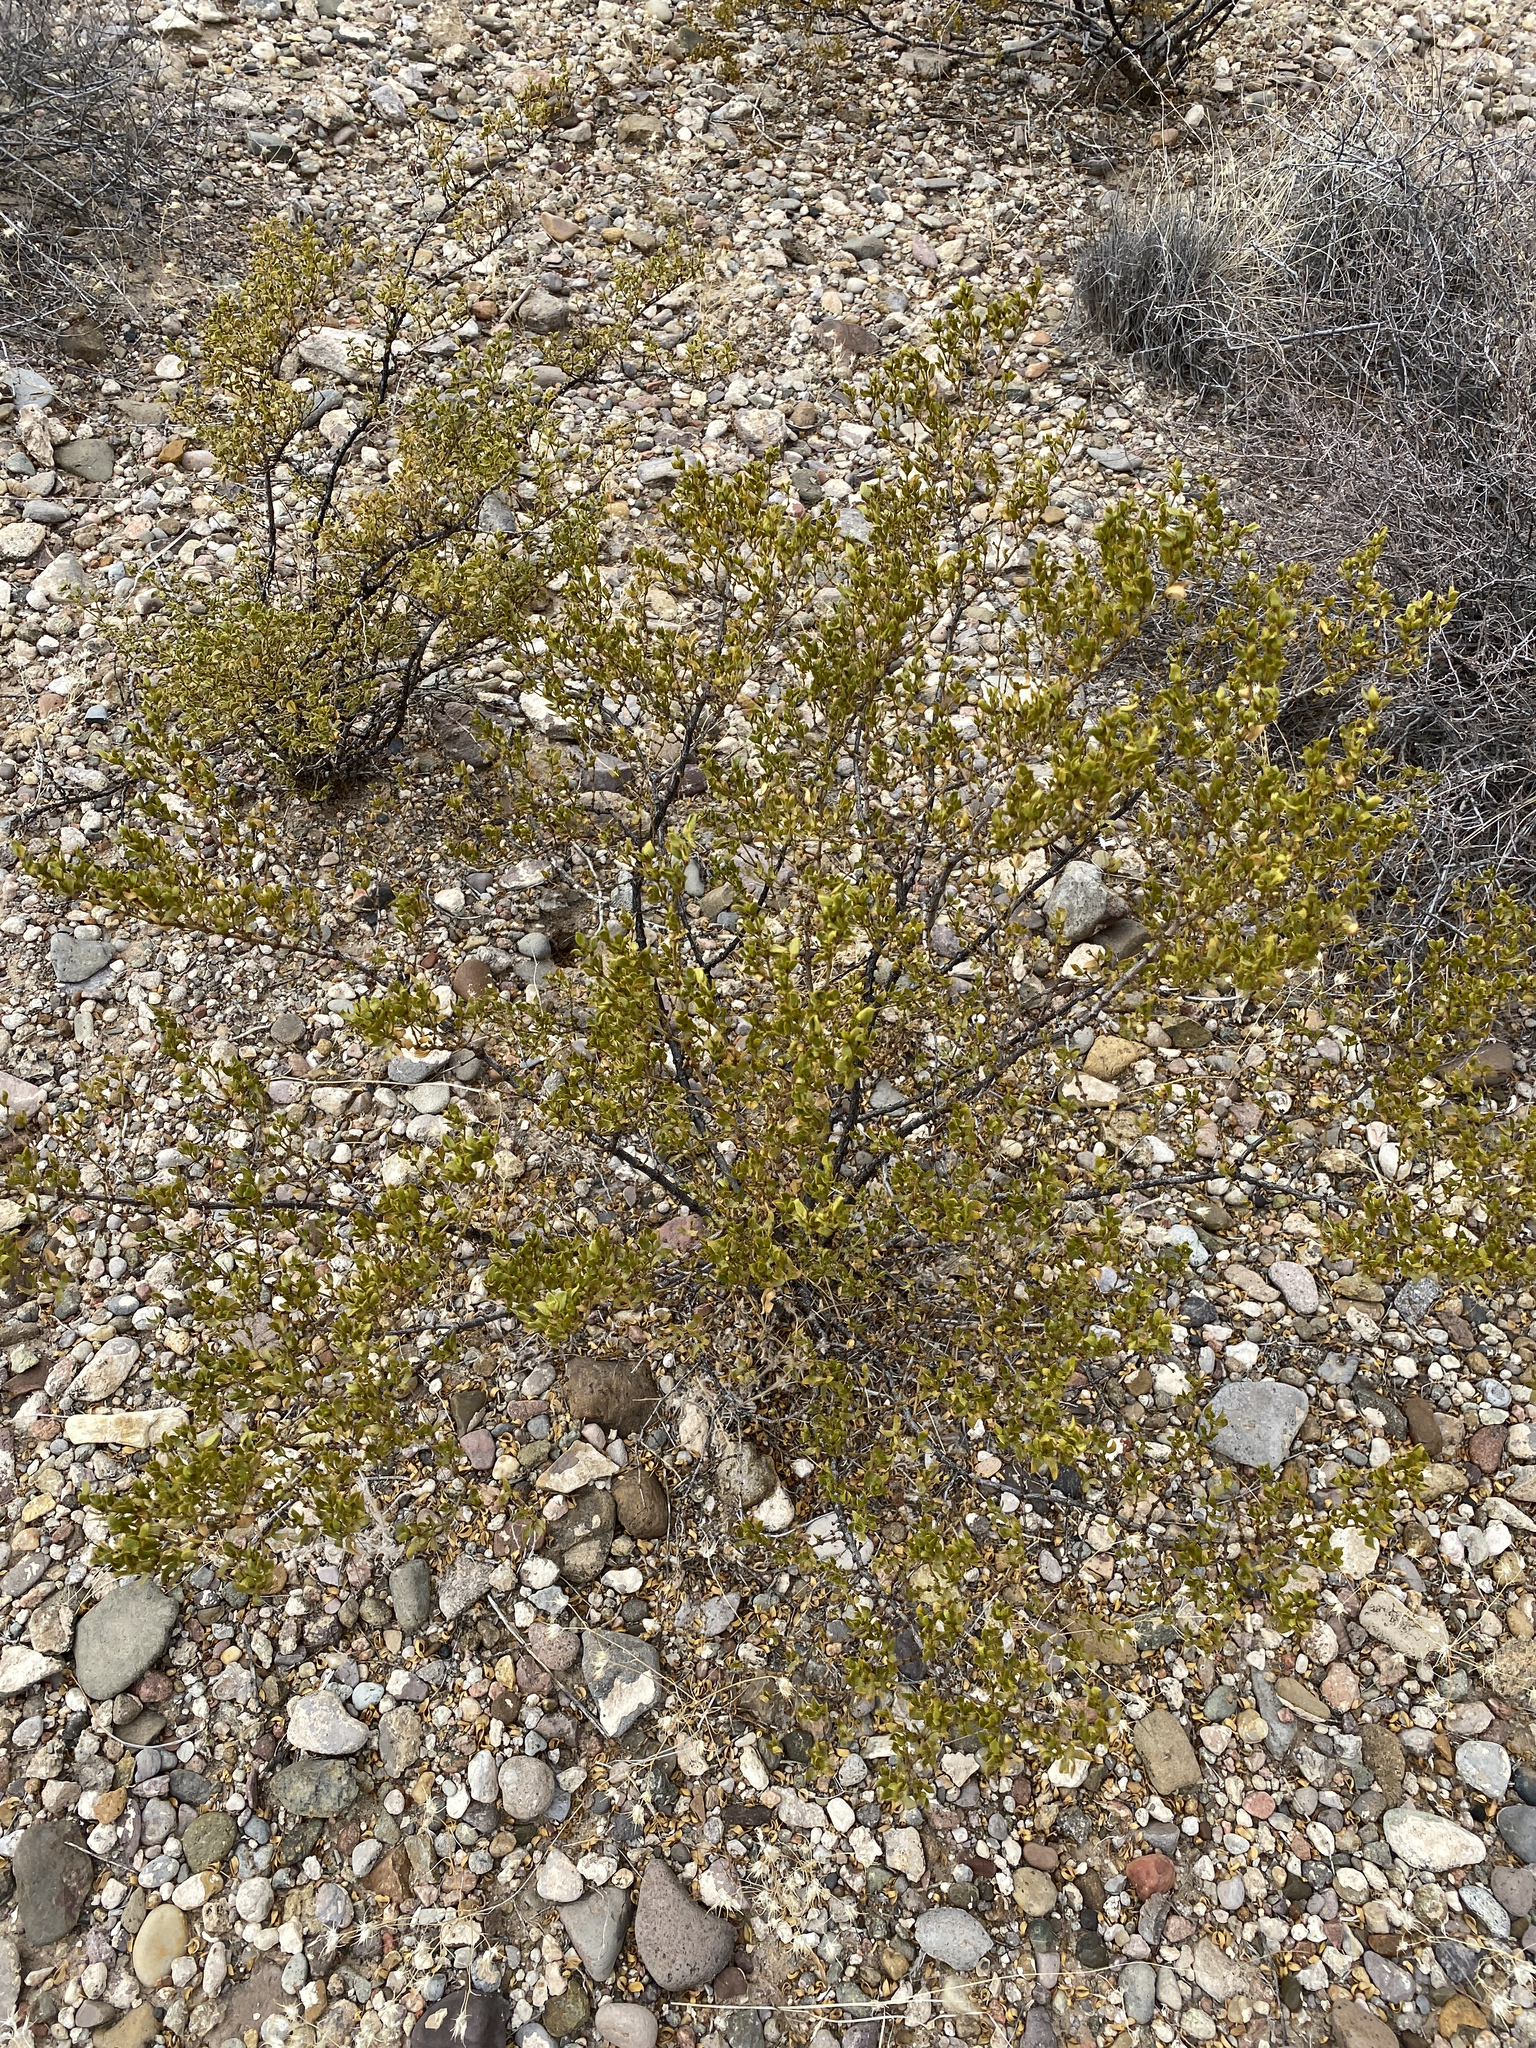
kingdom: Plantae
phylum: Tracheophyta
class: Magnoliopsida
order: Zygophyllales
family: Zygophyllaceae
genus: Larrea
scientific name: Larrea tridentata
